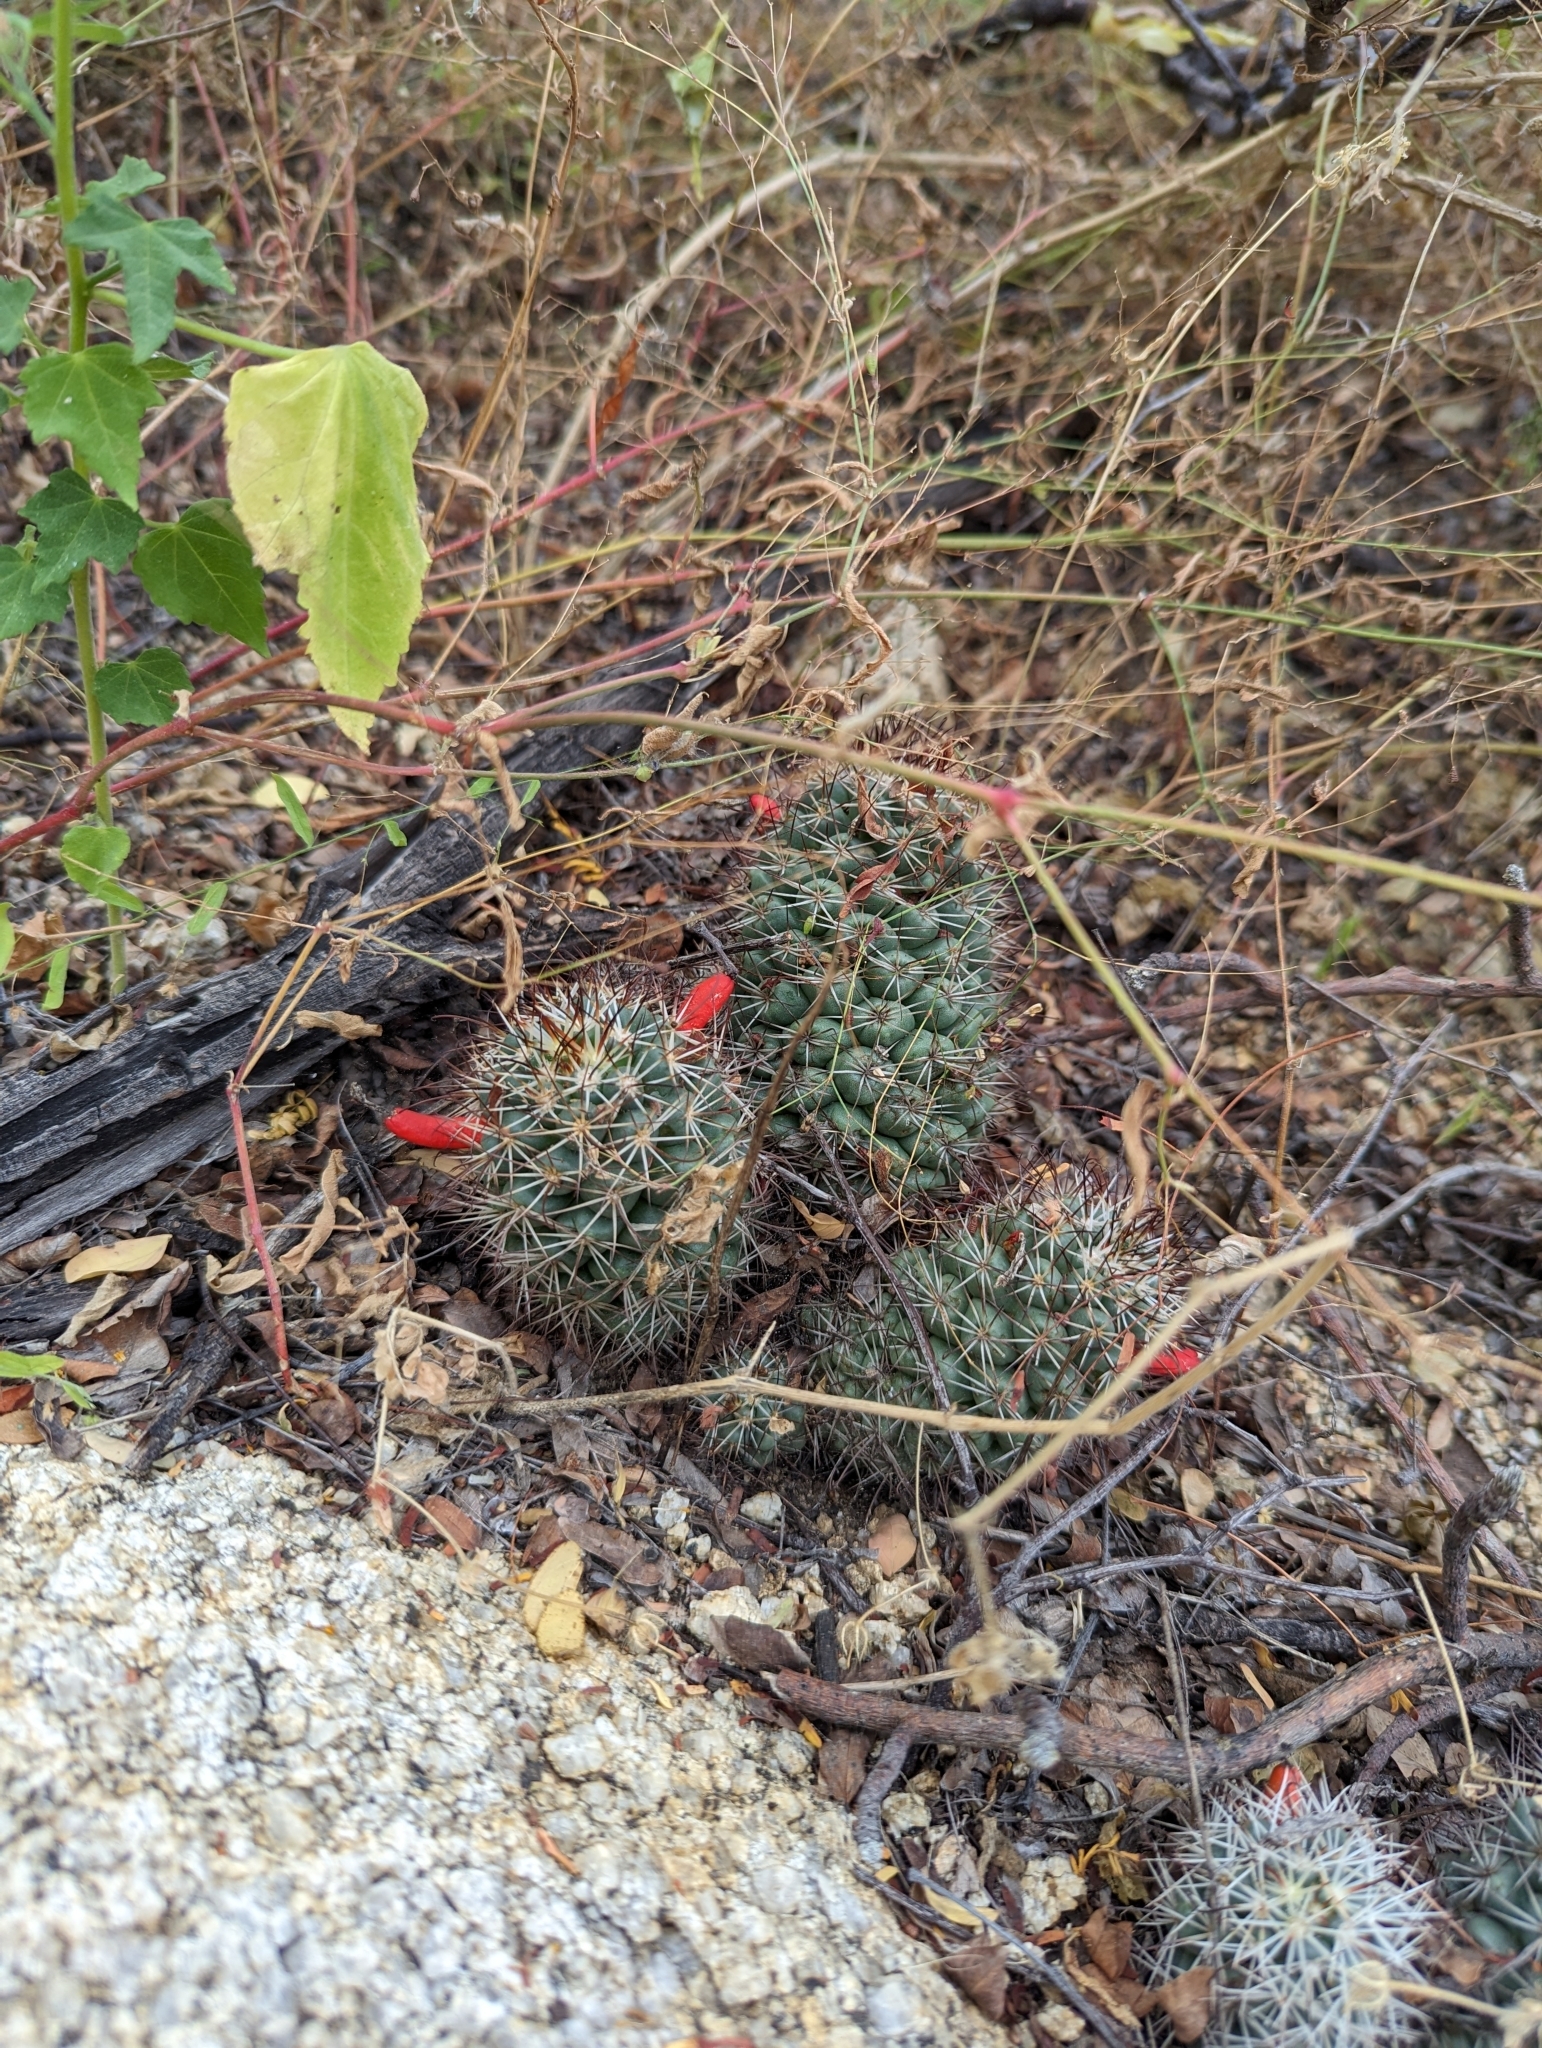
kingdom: Plantae
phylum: Tracheophyta
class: Magnoliopsida
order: Caryophyllales
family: Cactaceae
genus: Cochemiea
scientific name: Cochemiea schumannii
